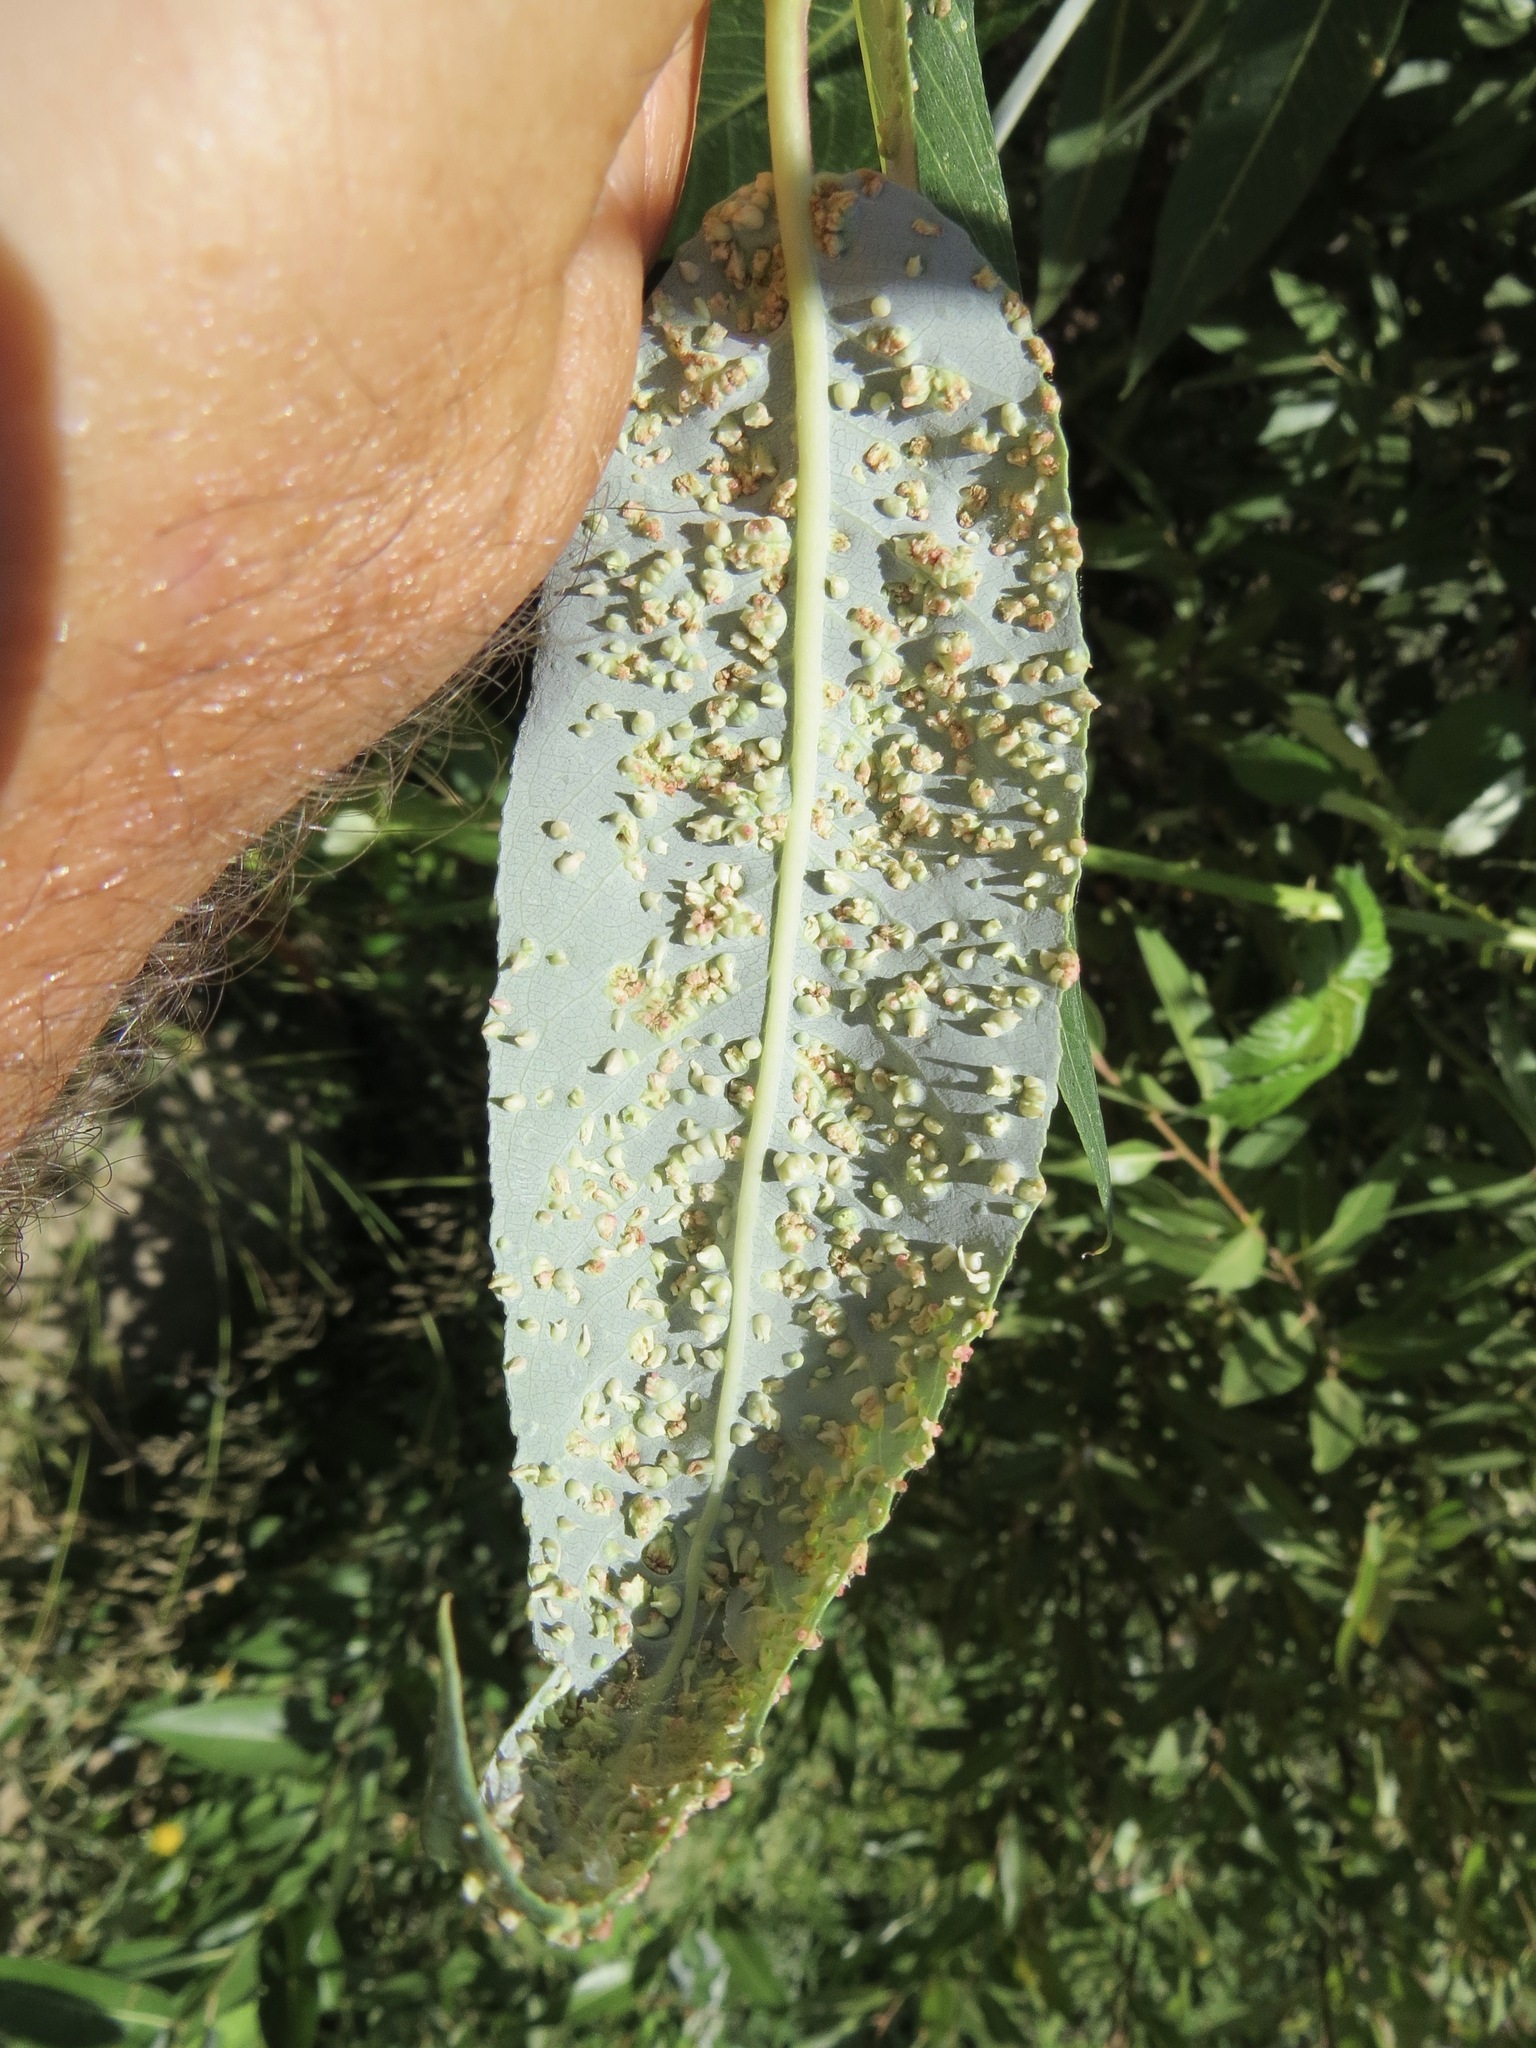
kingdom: Animalia
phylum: Arthropoda
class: Arachnida
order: Trombidiformes
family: Eriophyidae
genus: Aculus
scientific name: Aculus tetanothrix
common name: Willow bead gall mite
